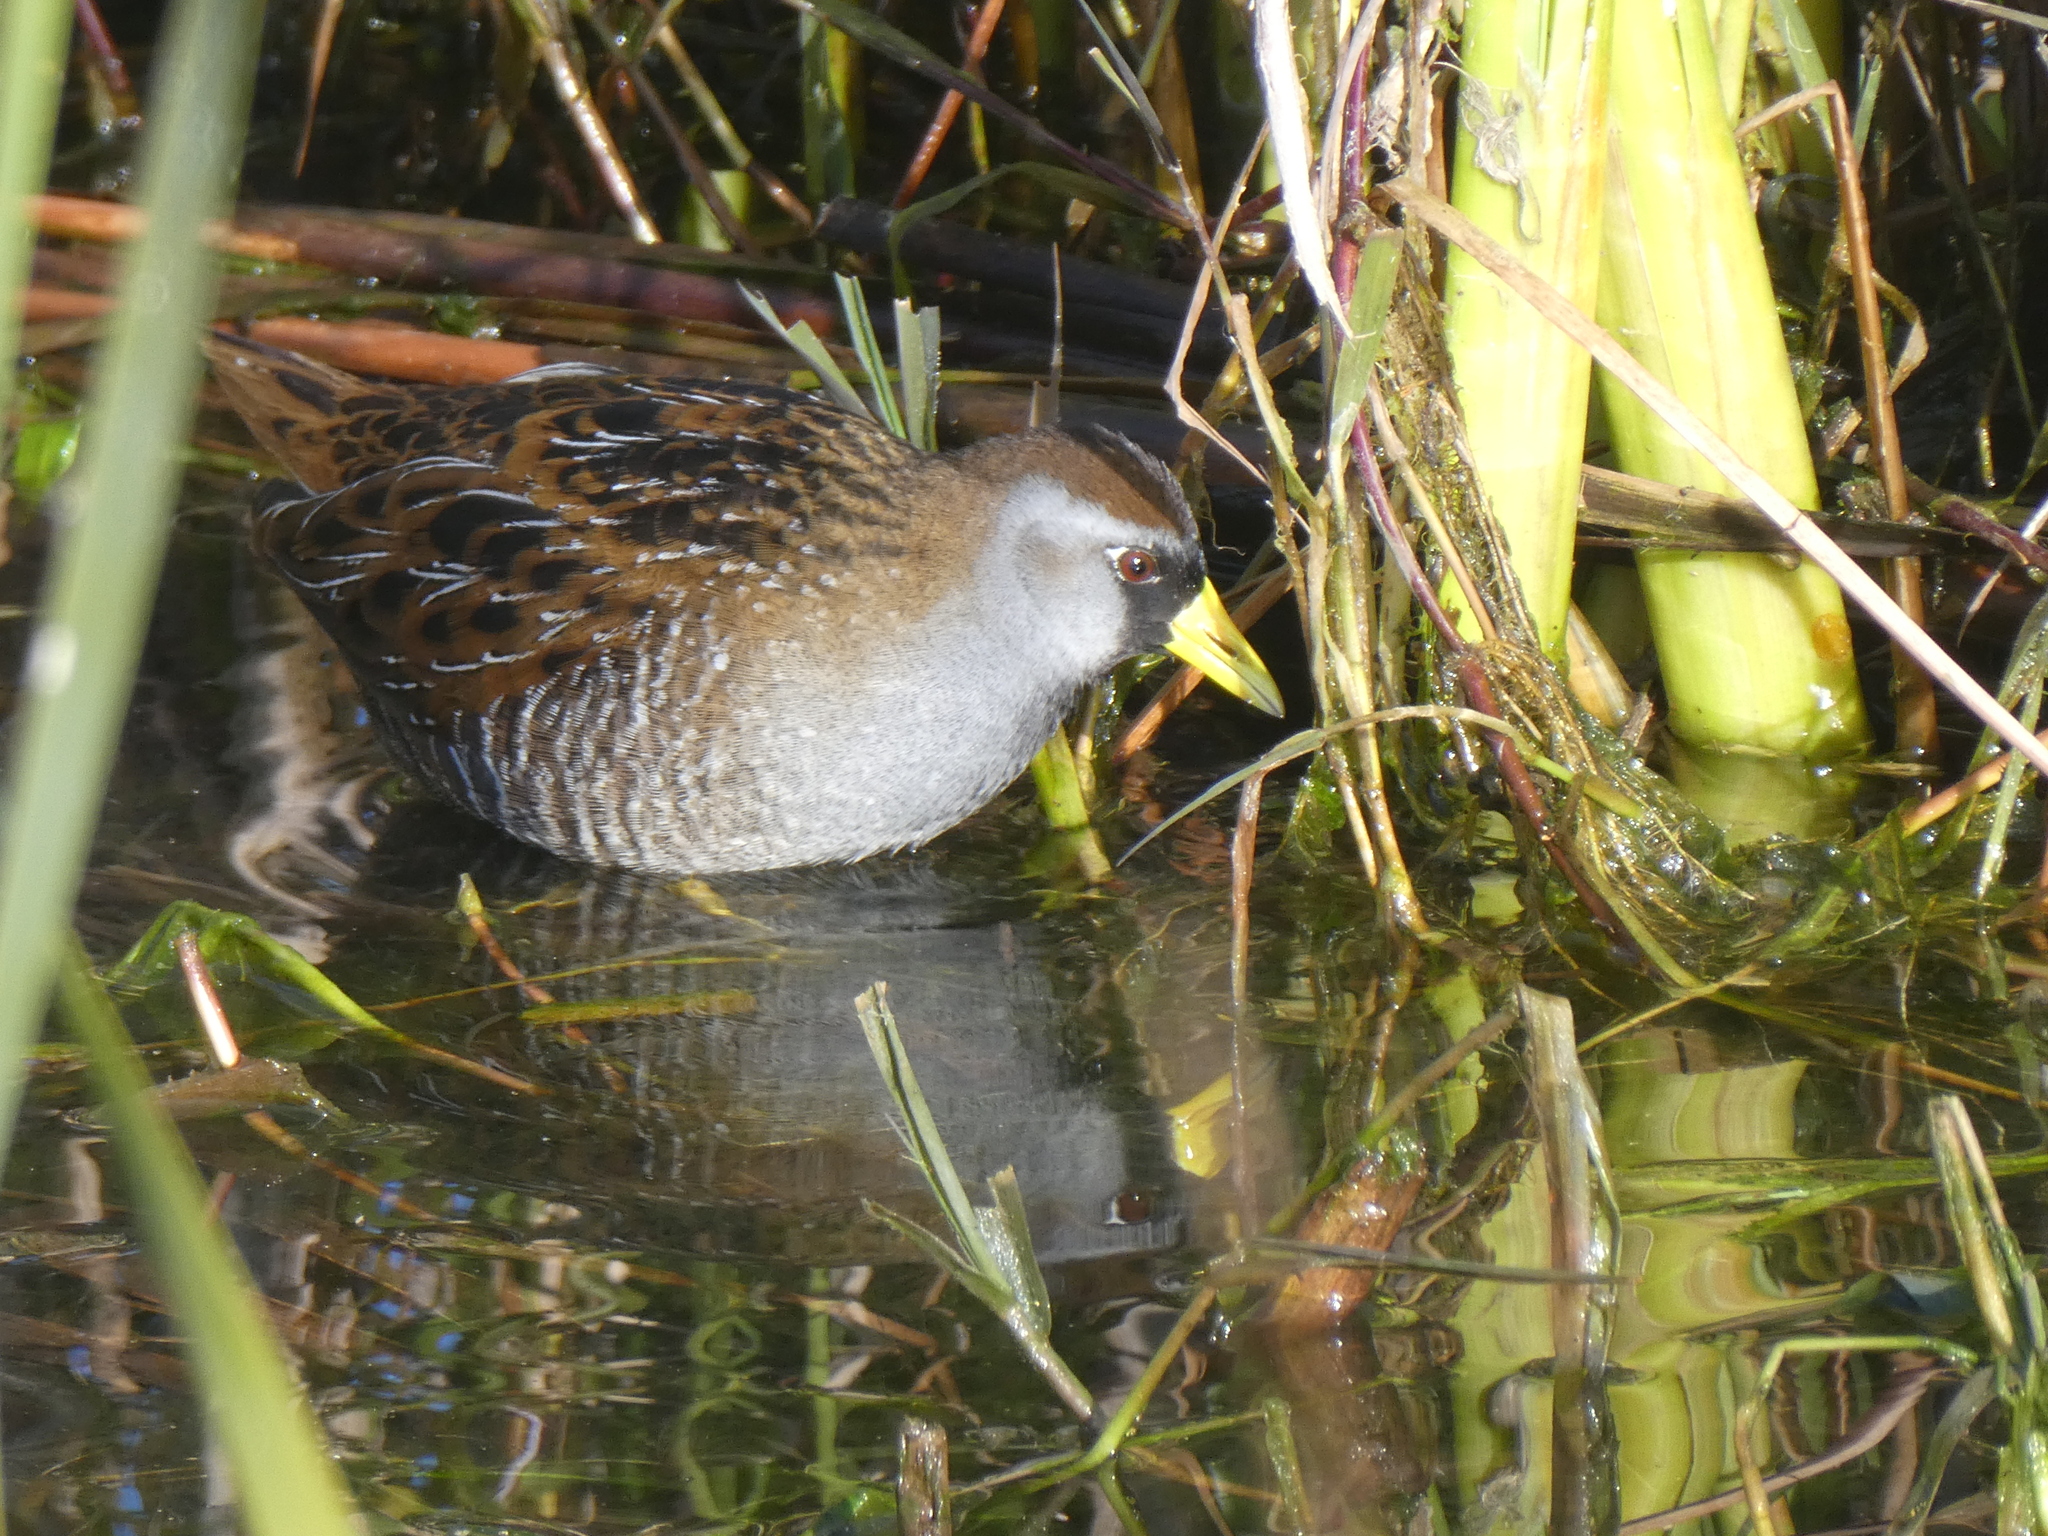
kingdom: Animalia
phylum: Chordata
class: Aves
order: Gruiformes
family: Rallidae
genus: Porzana
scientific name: Porzana carolina
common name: Sora
